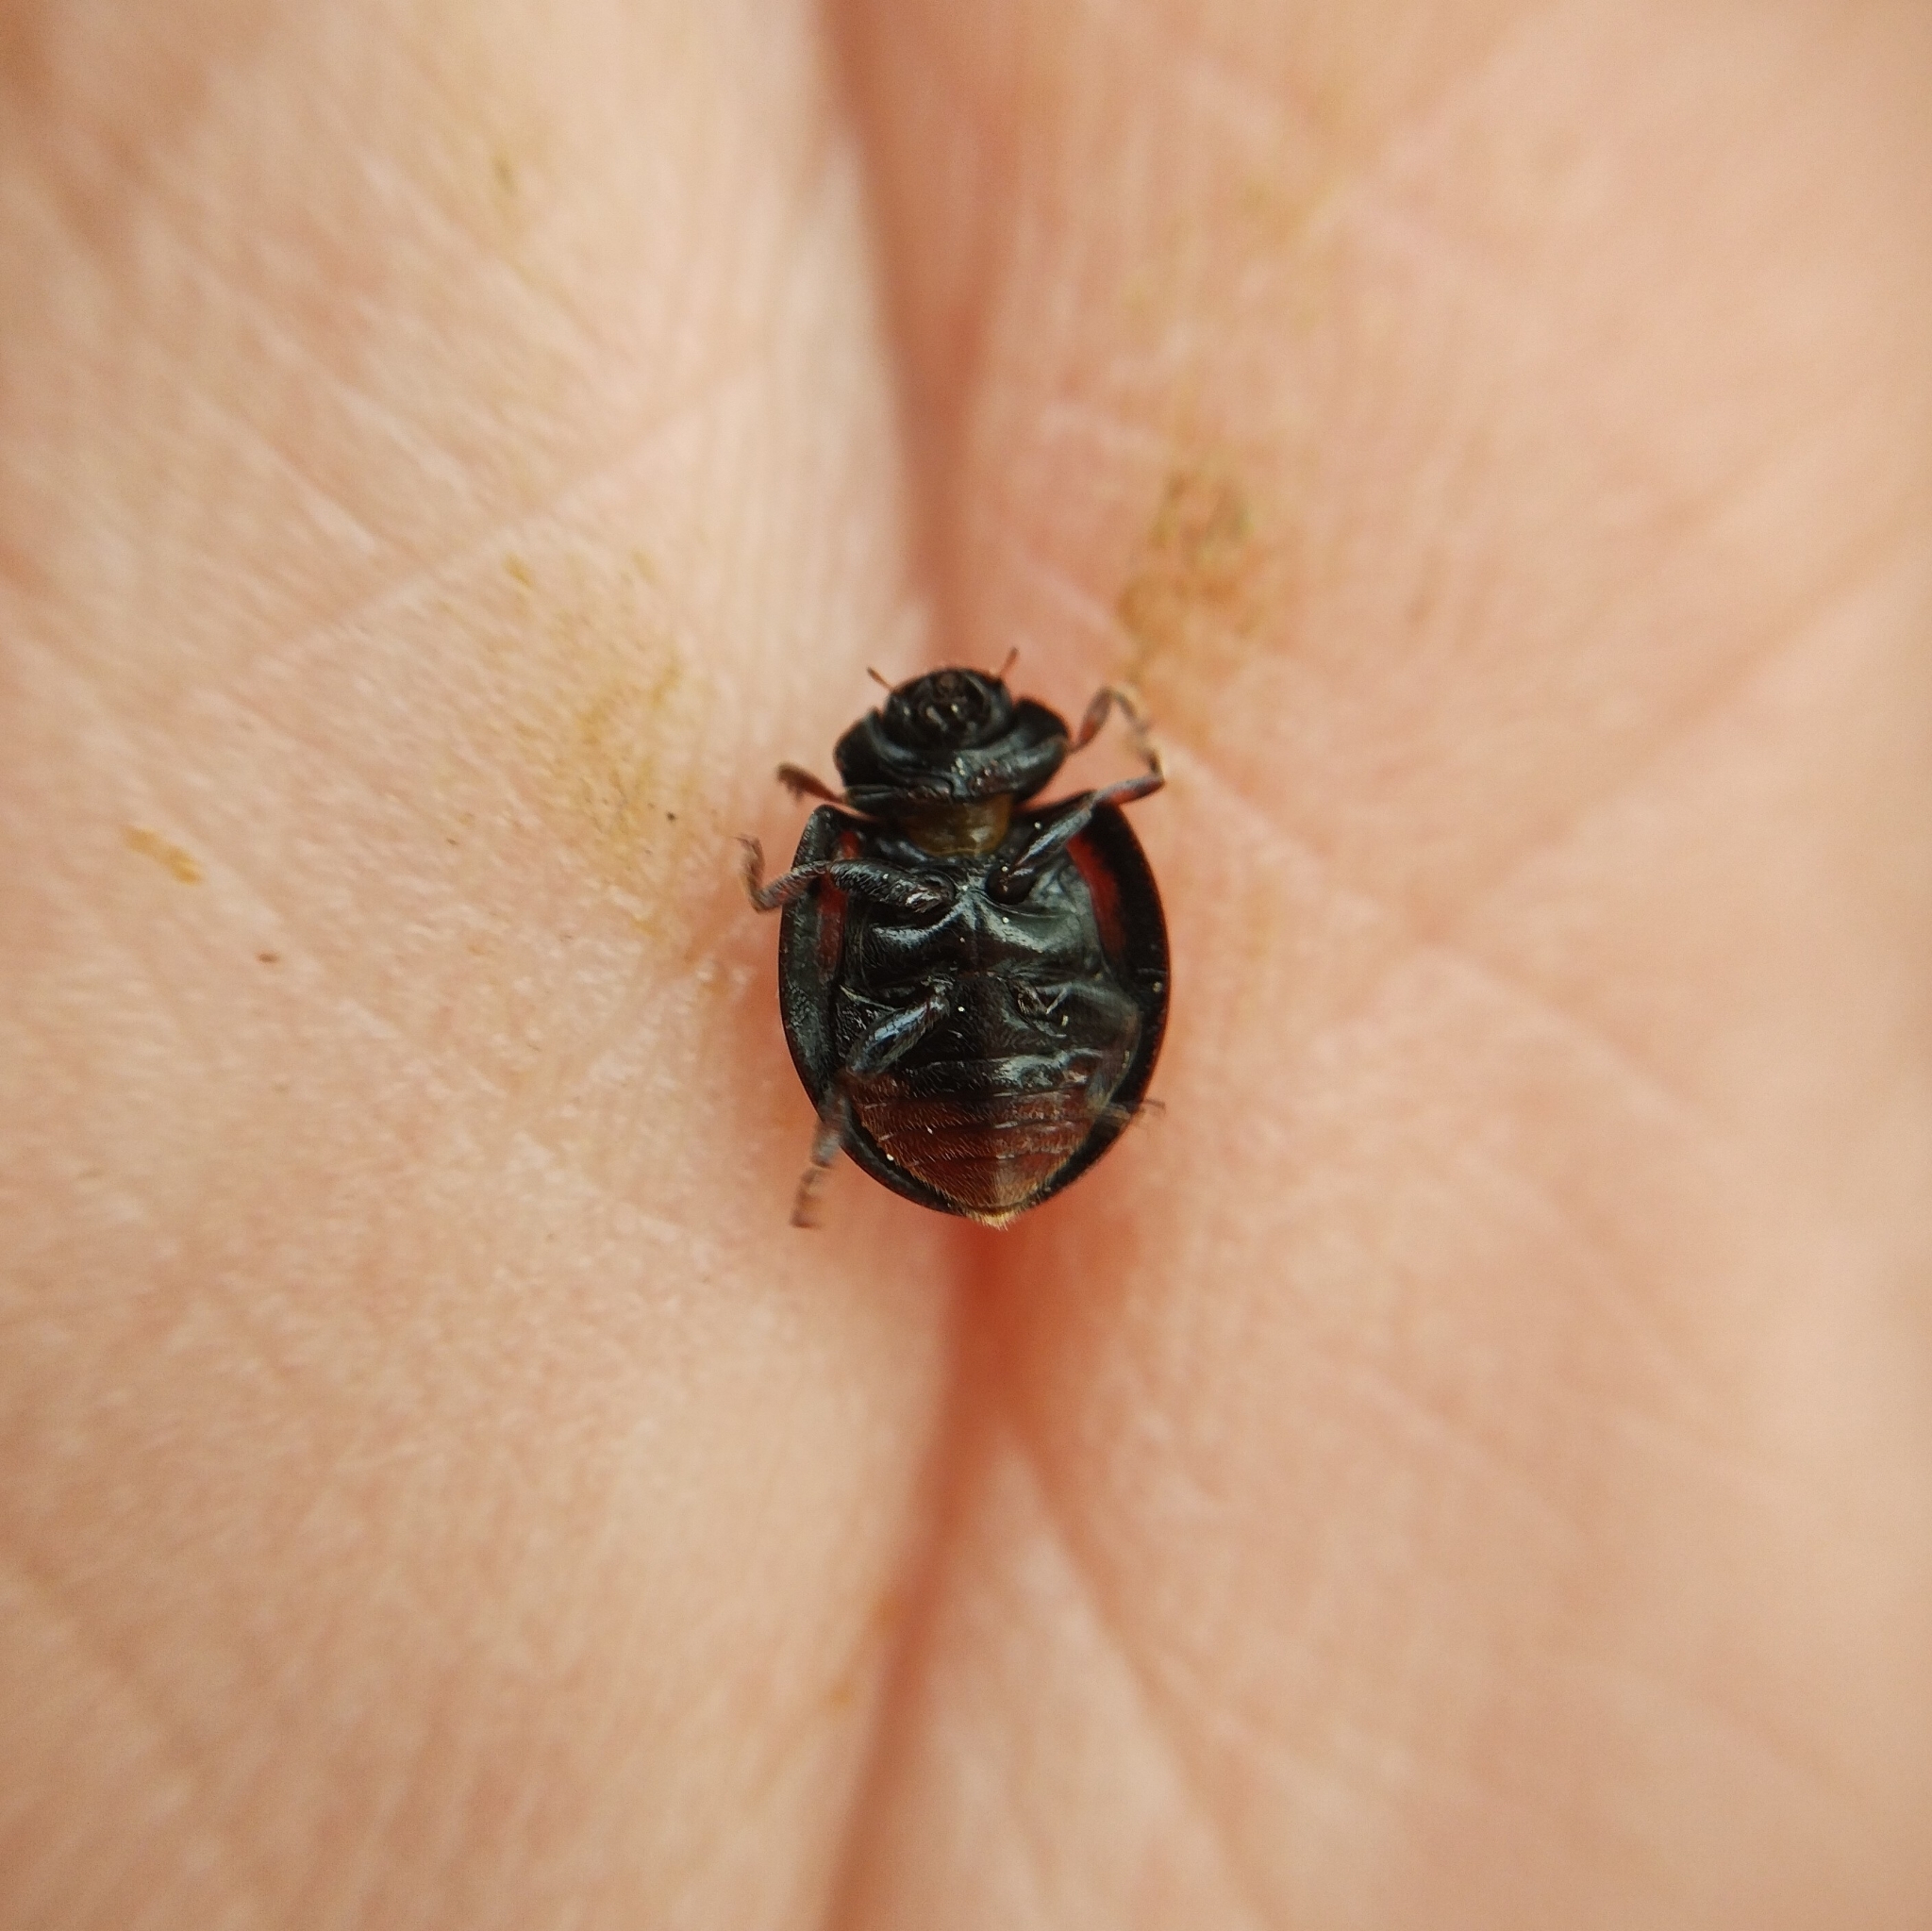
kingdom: Animalia
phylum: Arthropoda
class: Insecta
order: Coleoptera
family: Coccinellidae
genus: Brumus
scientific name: Brumus quadripustulatus
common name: Ladybird beetle
